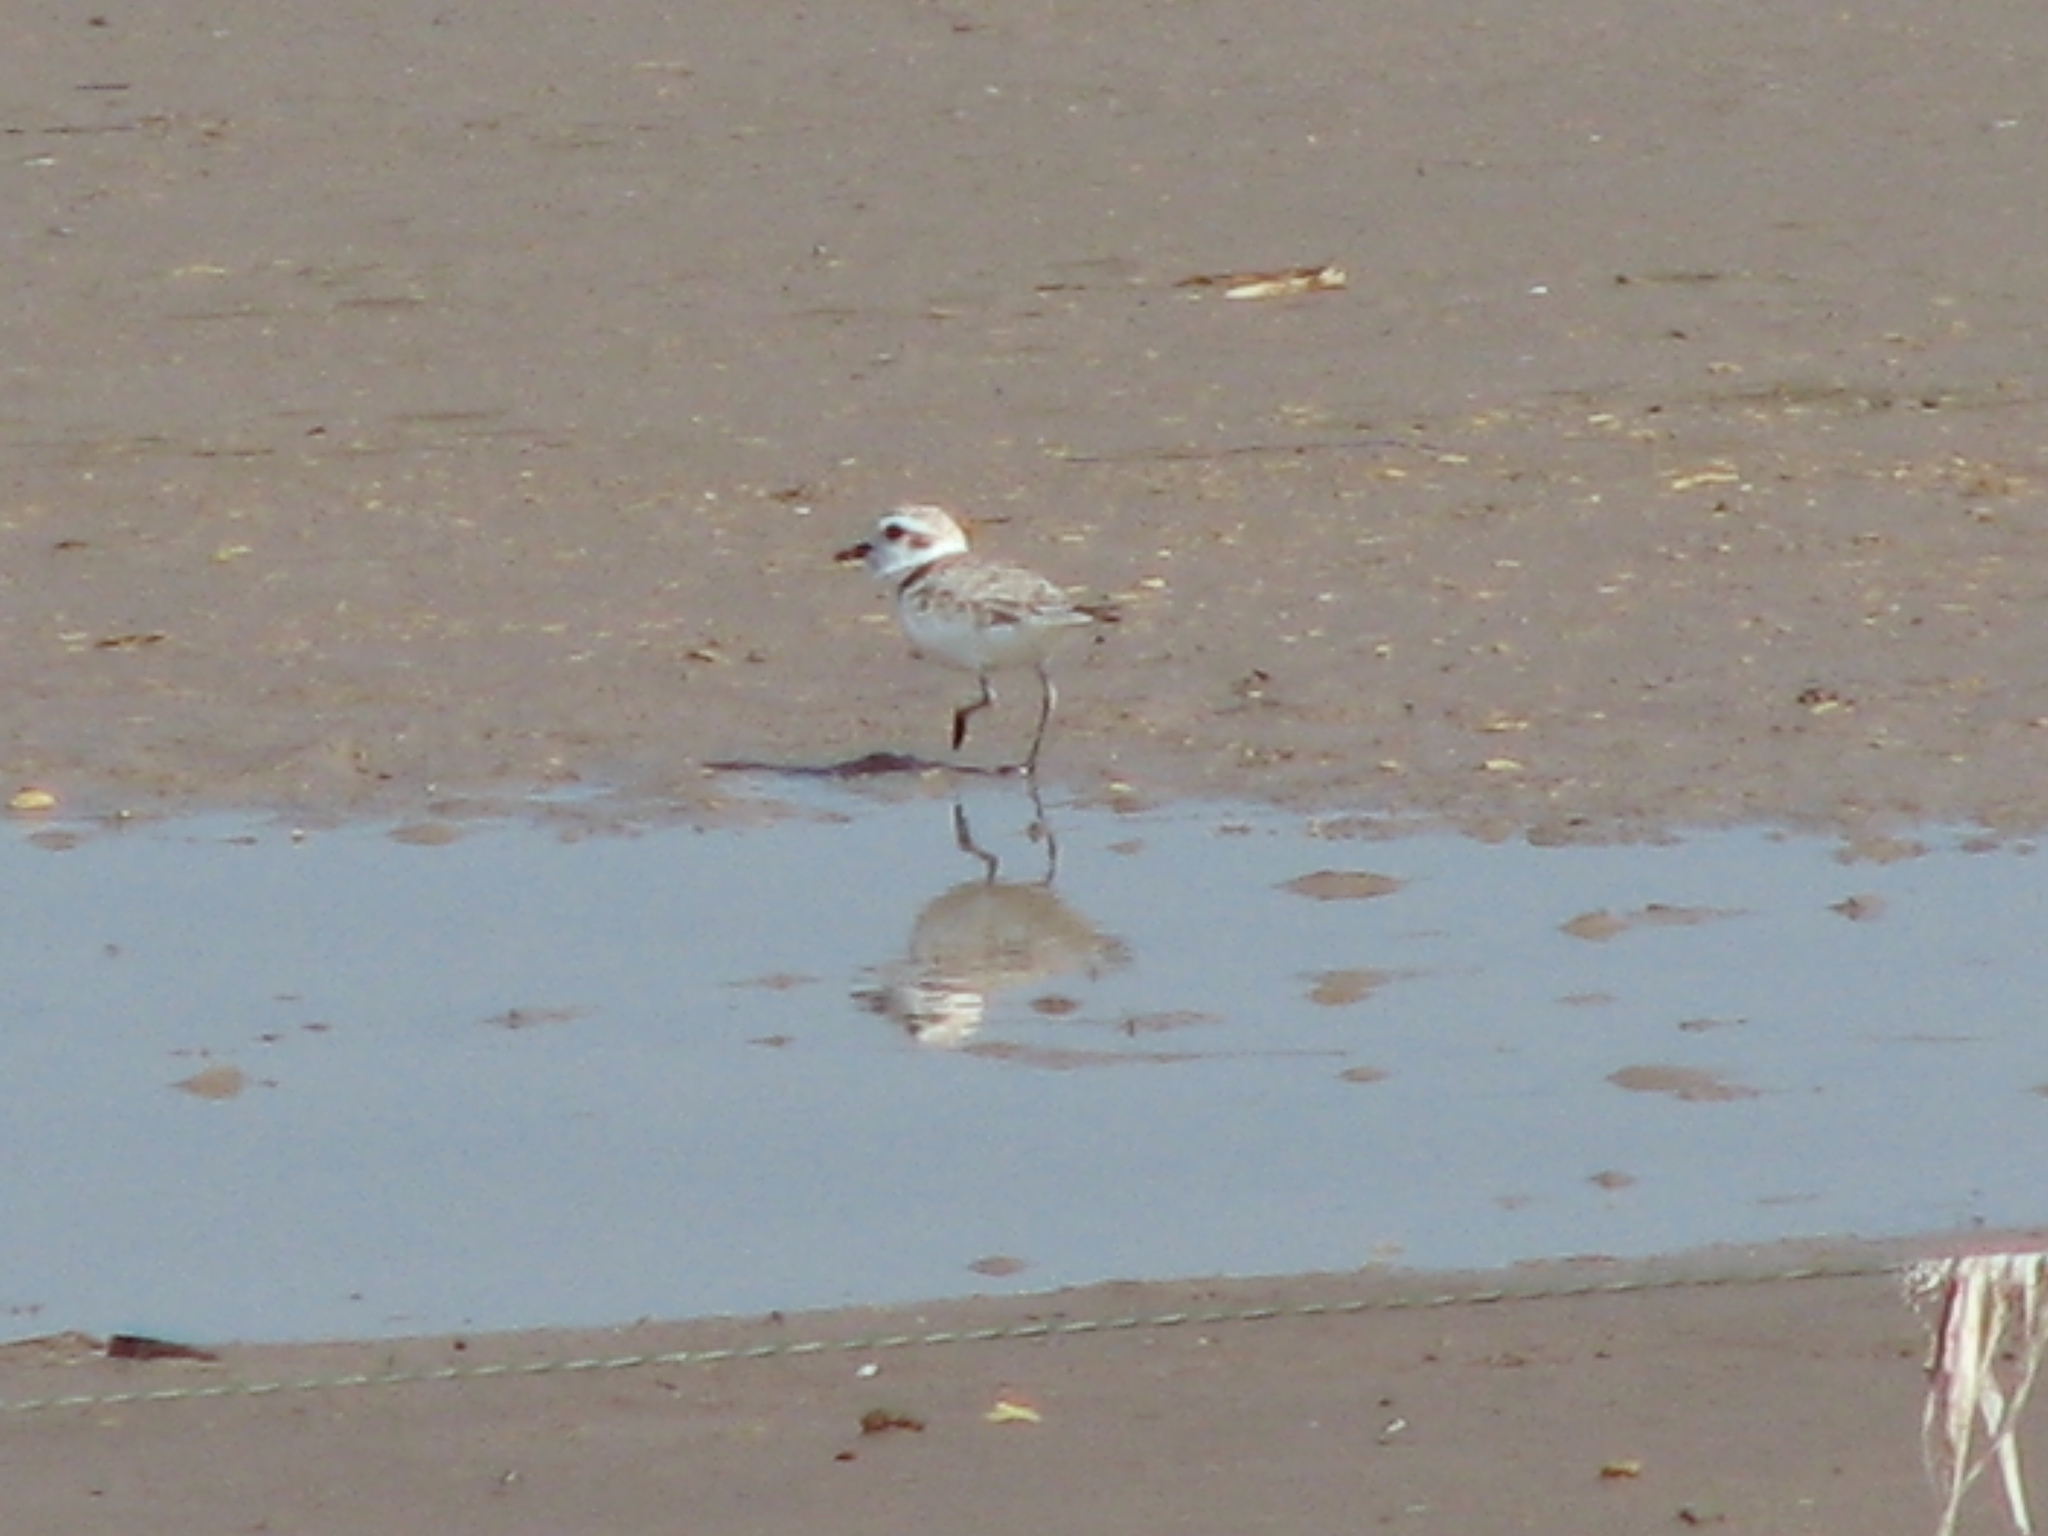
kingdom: Animalia
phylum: Chordata
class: Aves
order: Charadriiformes
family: Charadriidae
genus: Anarhynchus
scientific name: Anarhynchus
